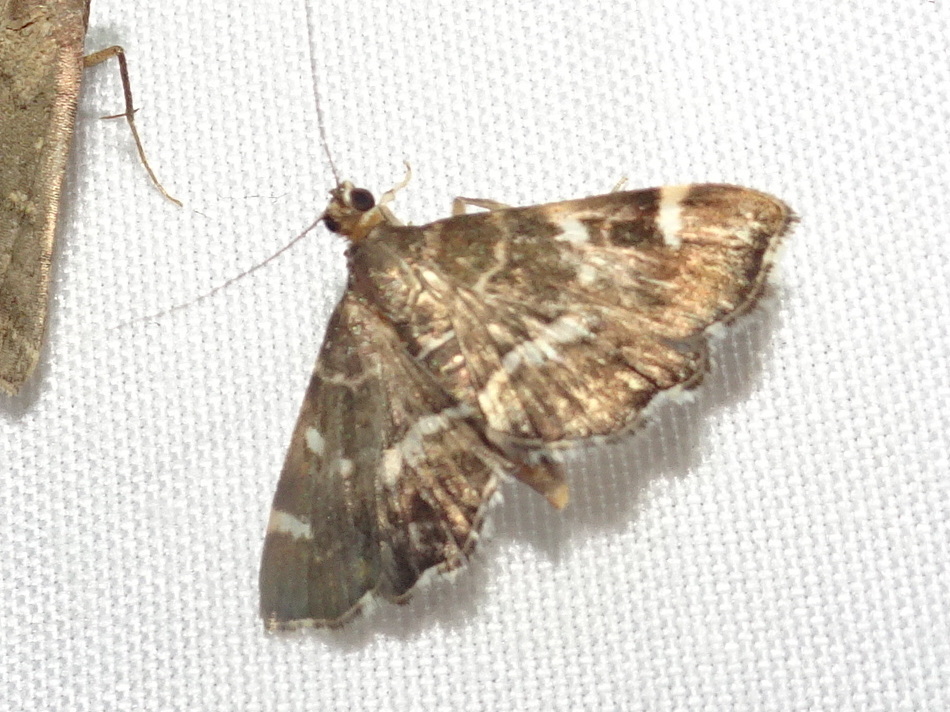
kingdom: Animalia
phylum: Arthropoda
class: Insecta
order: Lepidoptera
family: Crambidae
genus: Hymenia
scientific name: Hymenia perspectalis
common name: Spotted beet webworm
